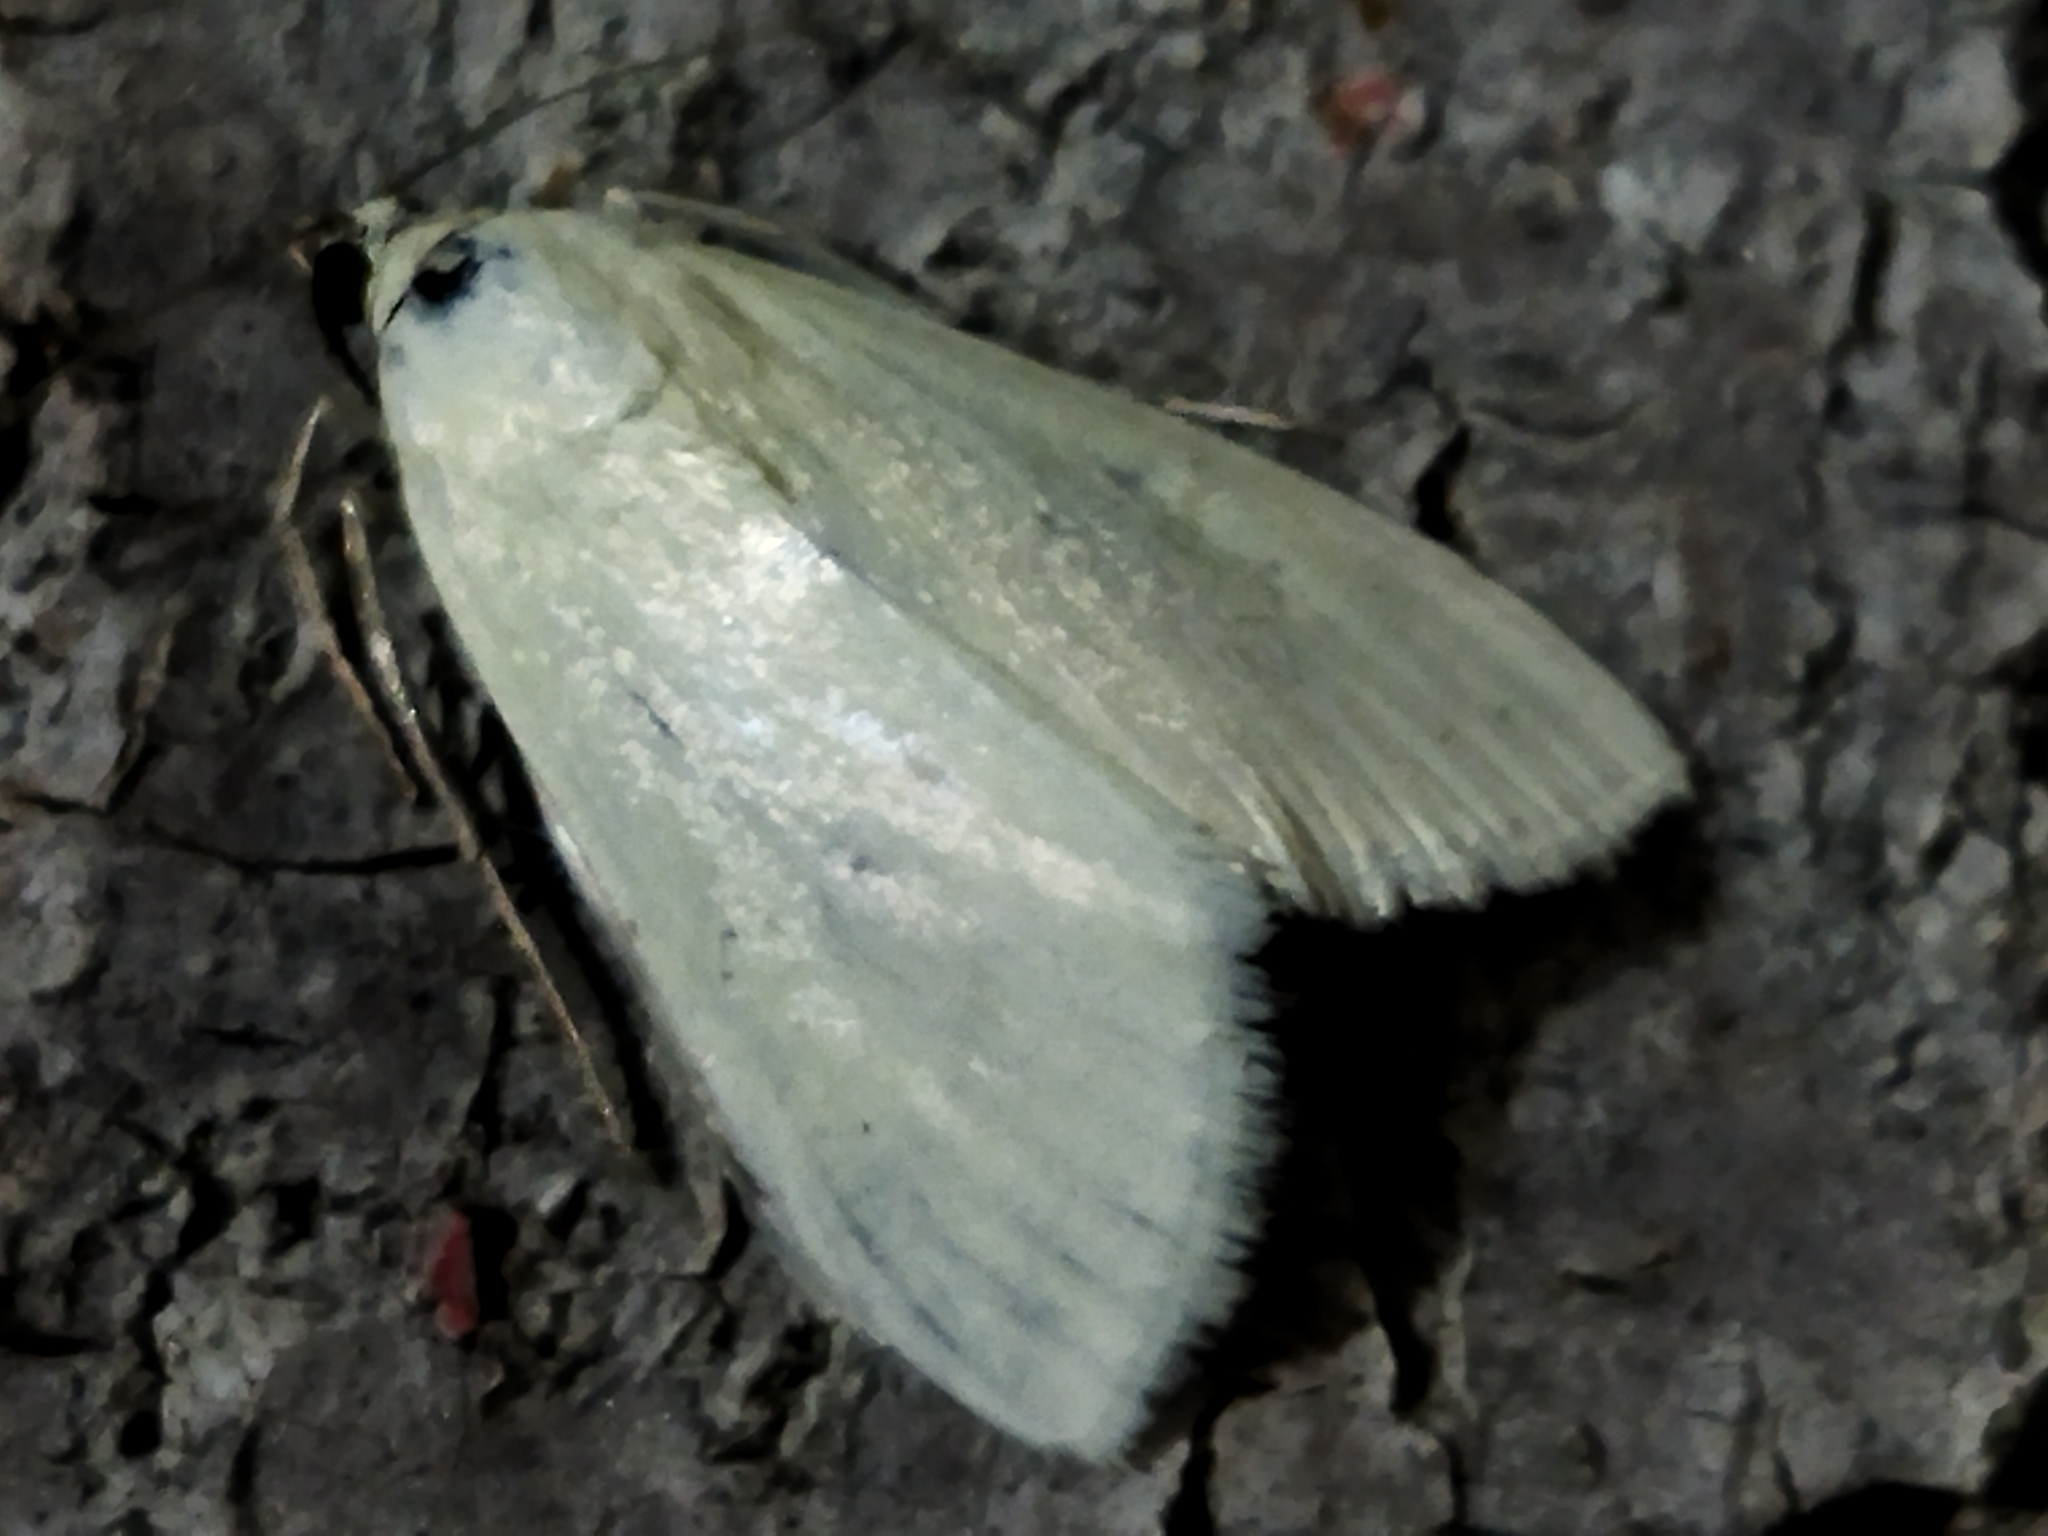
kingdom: Animalia
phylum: Arthropoda
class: Insecta
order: Lepidoptera
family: Crambidae
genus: Sitochroa
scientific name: Sitochroa palealis
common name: Greenish-yellow sitochroa moth
